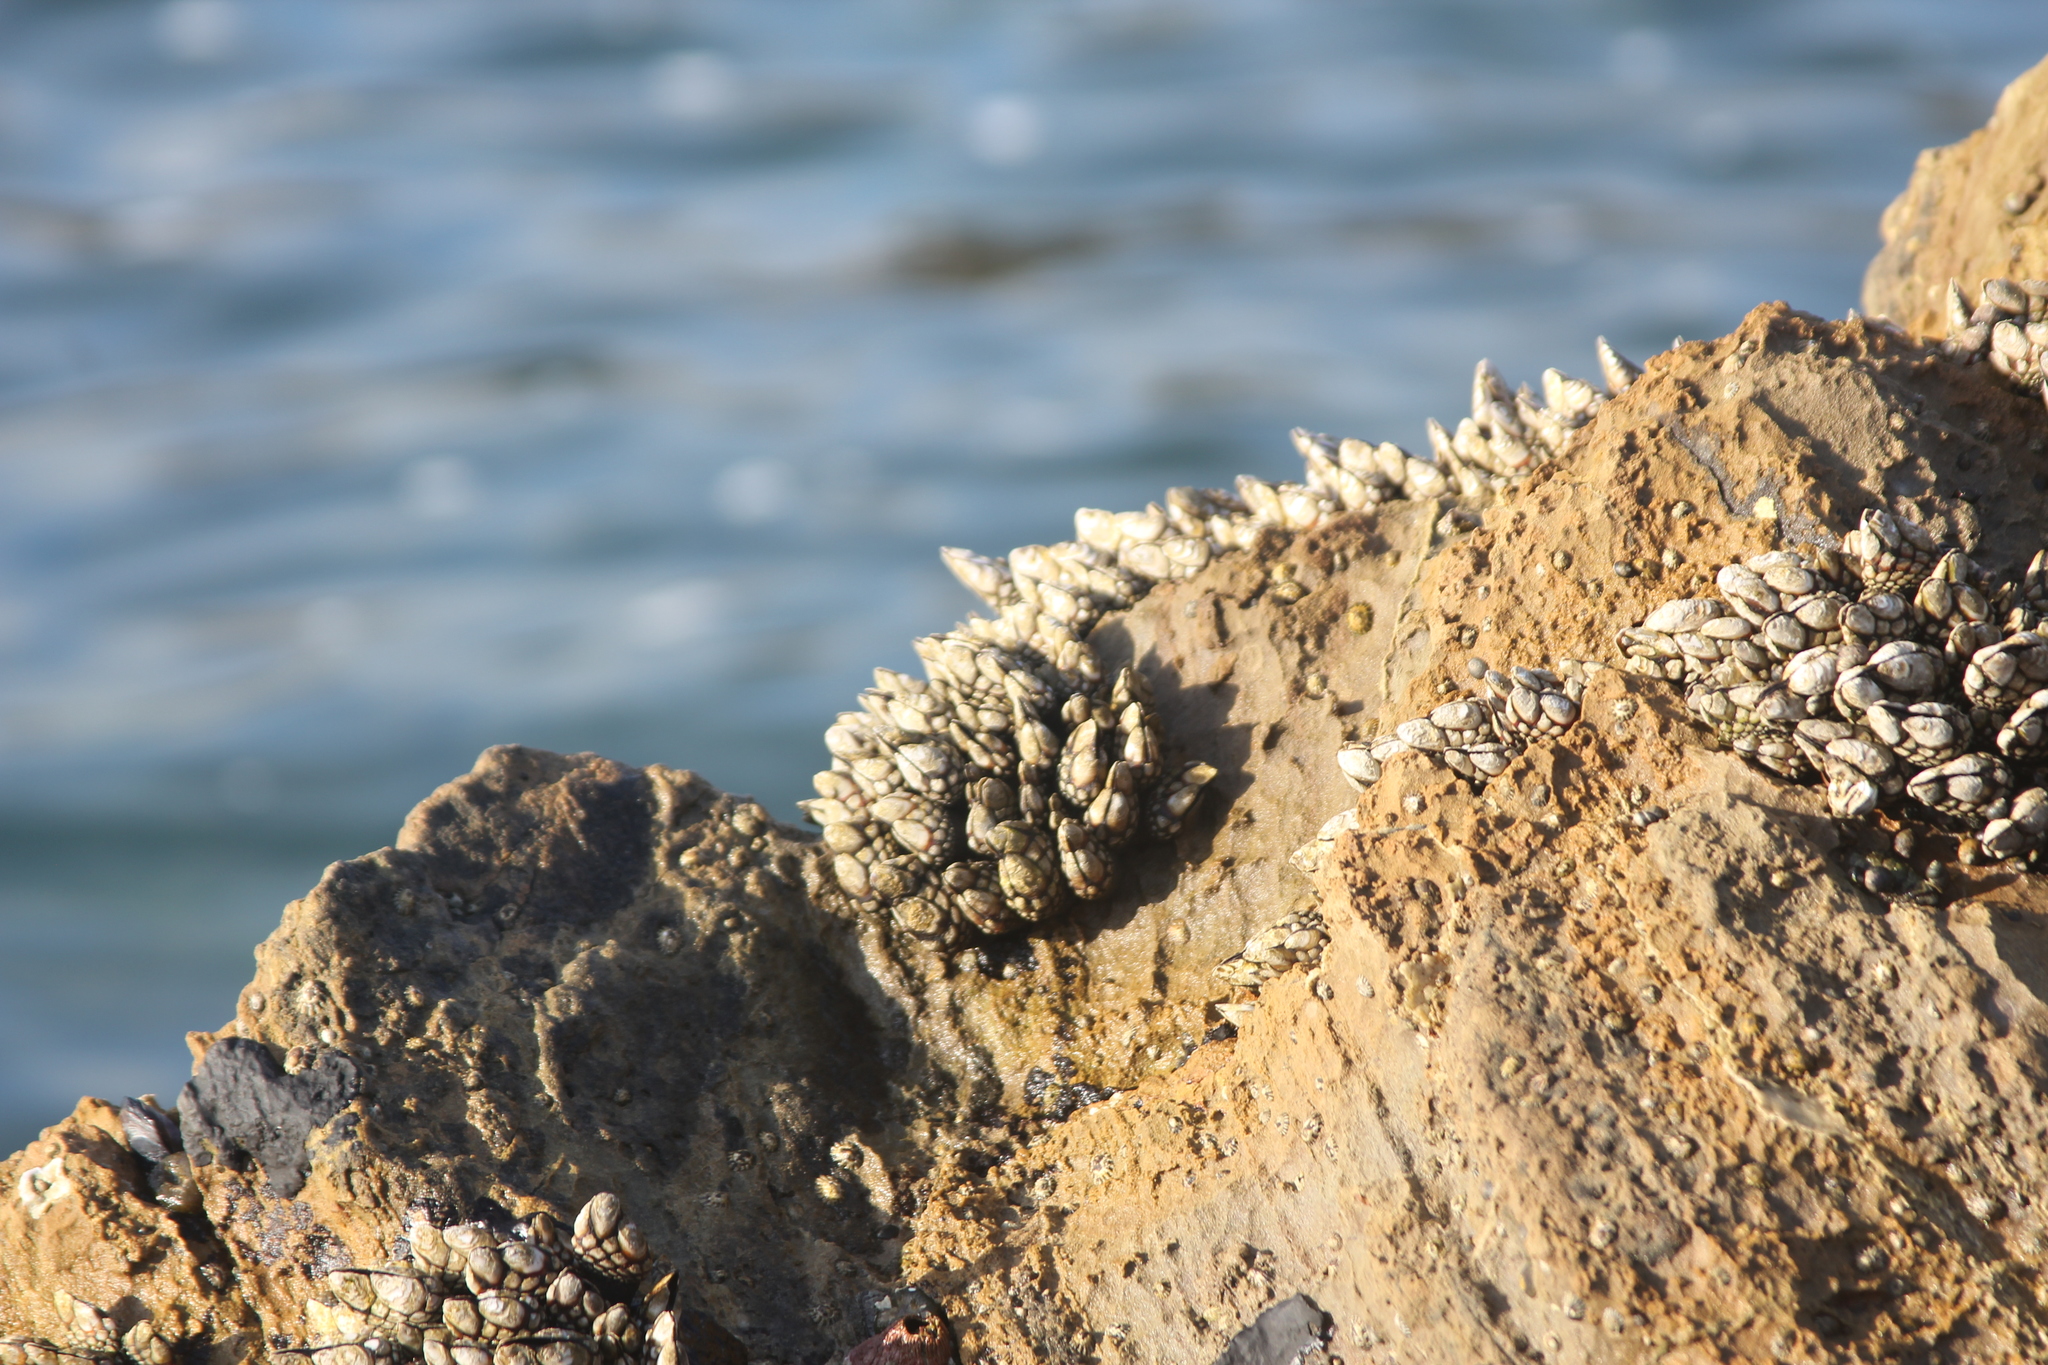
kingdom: Animalia
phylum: Arthropoda
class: Maxillopoda
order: Pedunculata
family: Pollicipedidae
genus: Pollicipes
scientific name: Pollicipes polymerus
